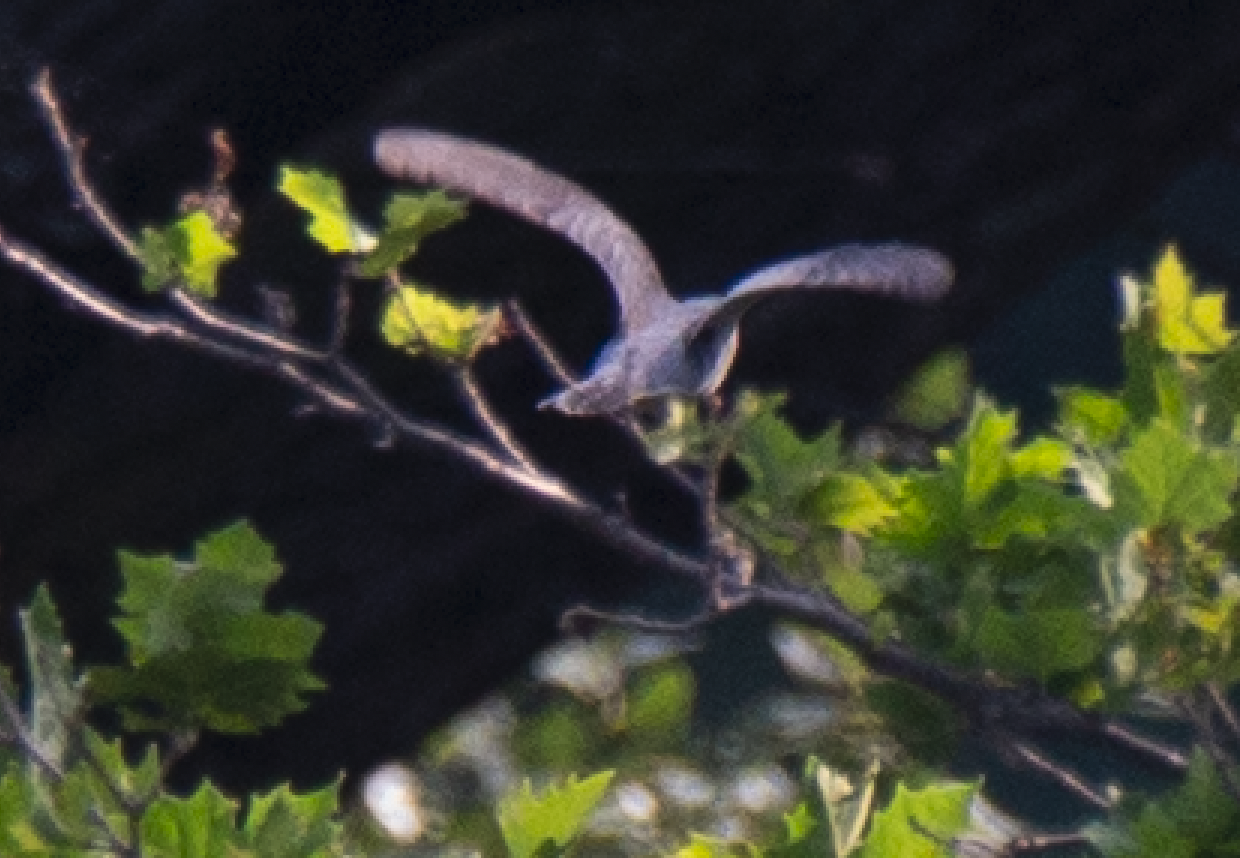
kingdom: Animalia
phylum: Chordata
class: Aves
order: Cuculiformes
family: Cuculidae
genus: Cuculus
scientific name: Cuculus canorus
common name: Common cuckoo
